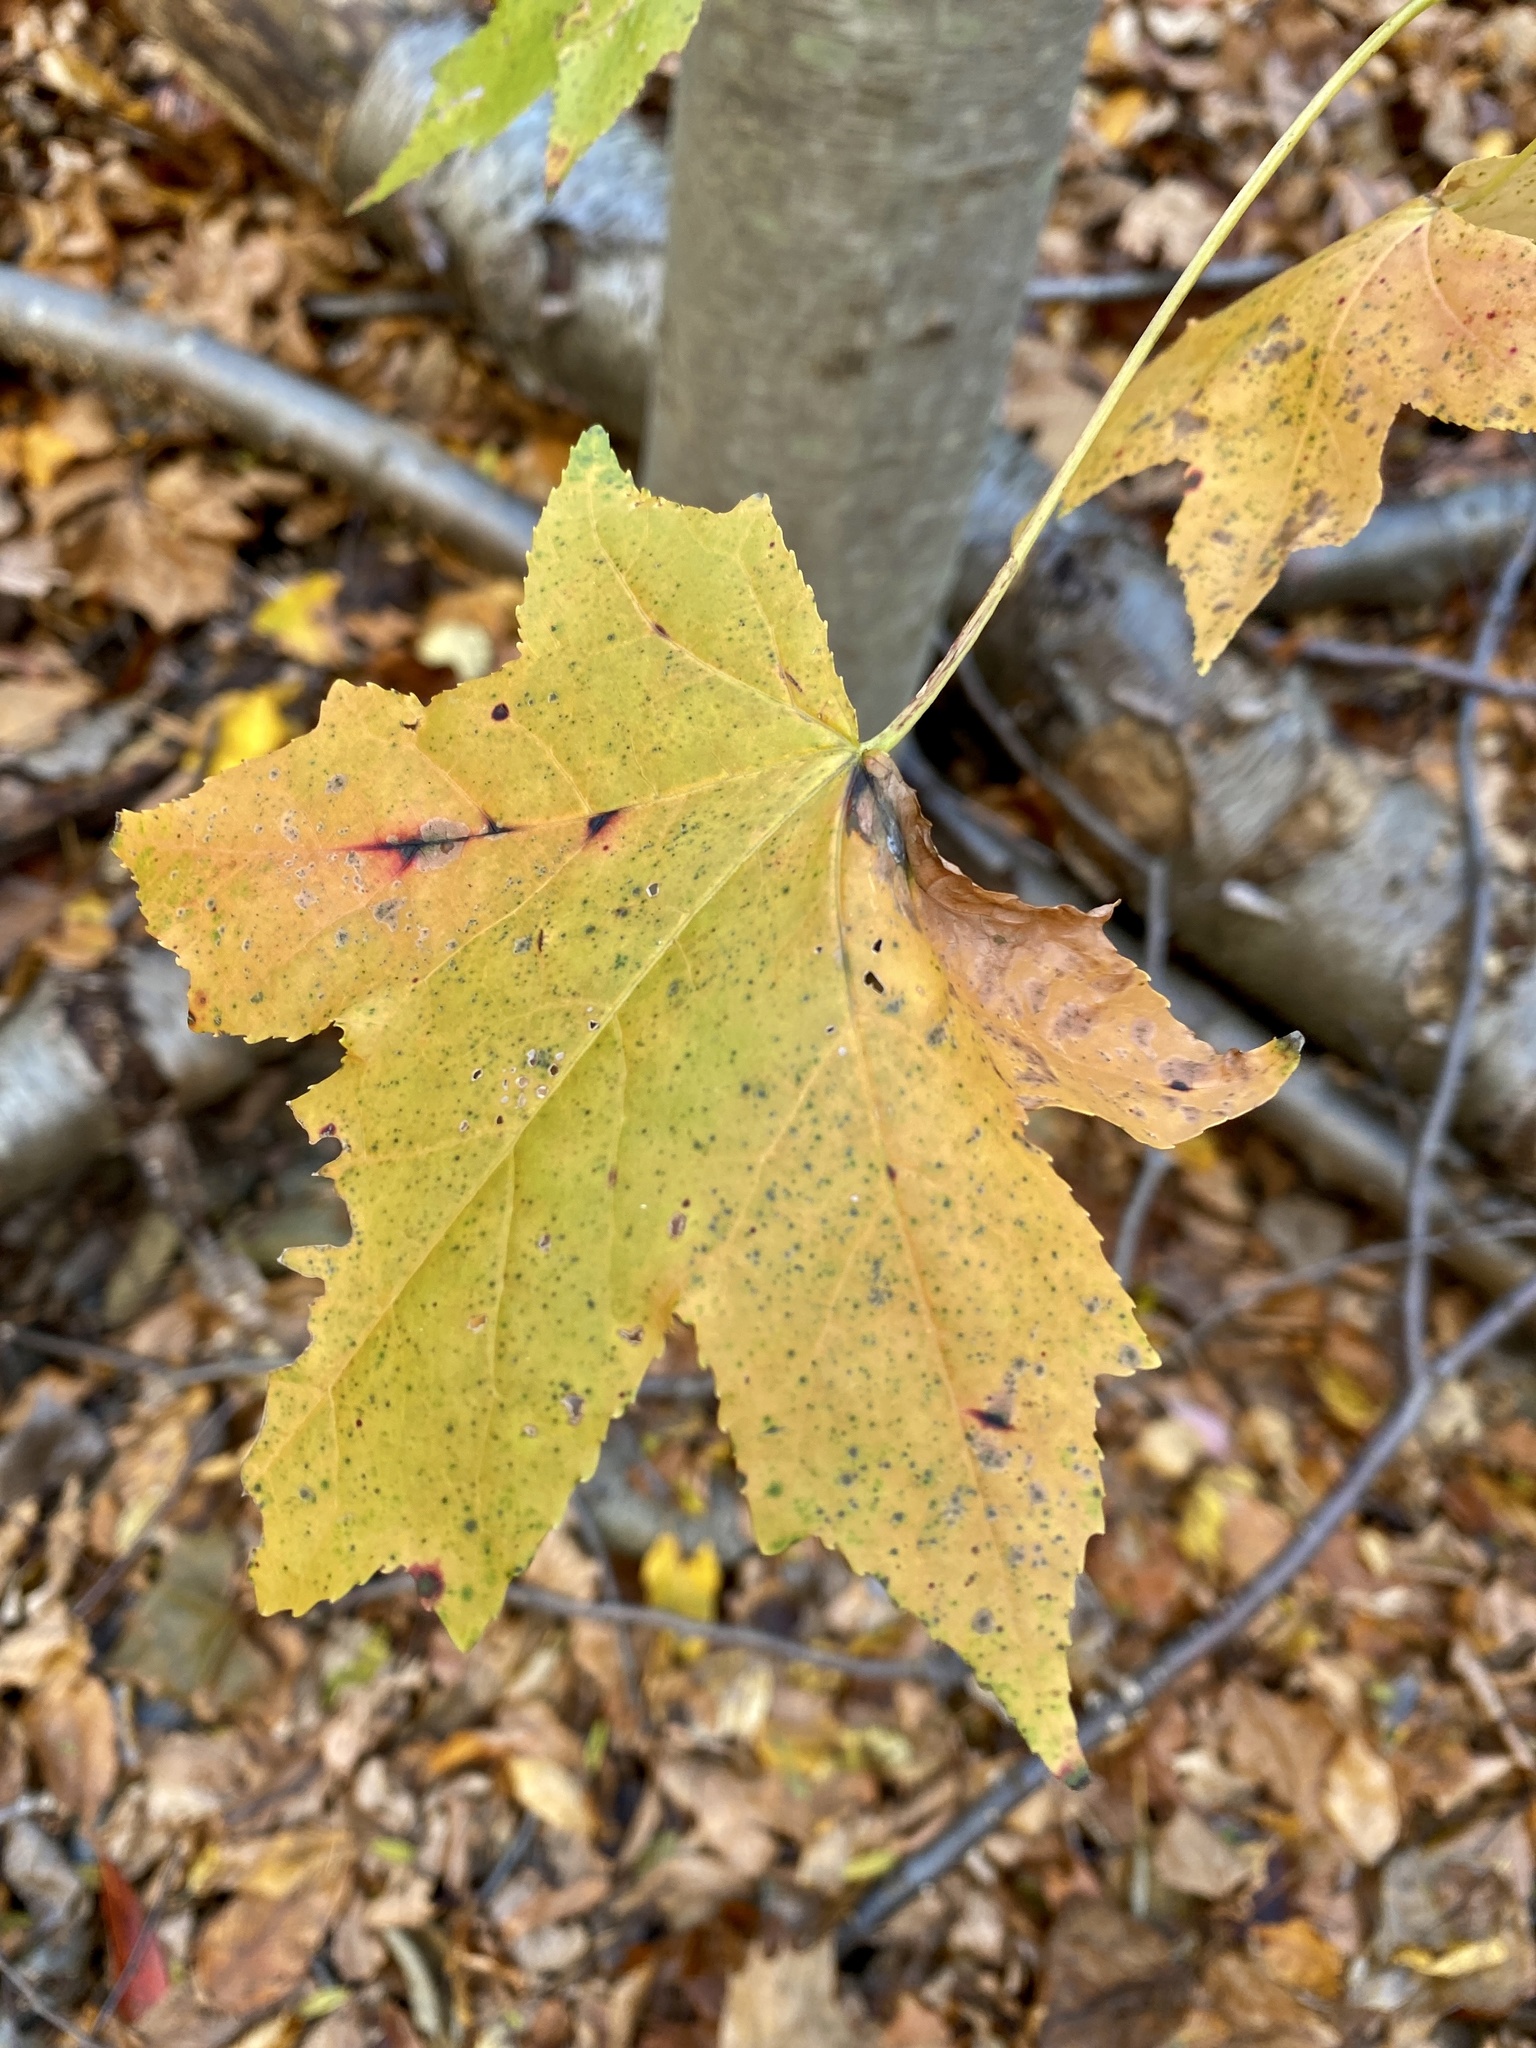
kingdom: Plantae
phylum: Tracheophyta
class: Magnoliopsida
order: Saxifragales
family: Altingiaceae
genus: Liquidambar
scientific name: Liquidambar styraciflua
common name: Sweet gum
